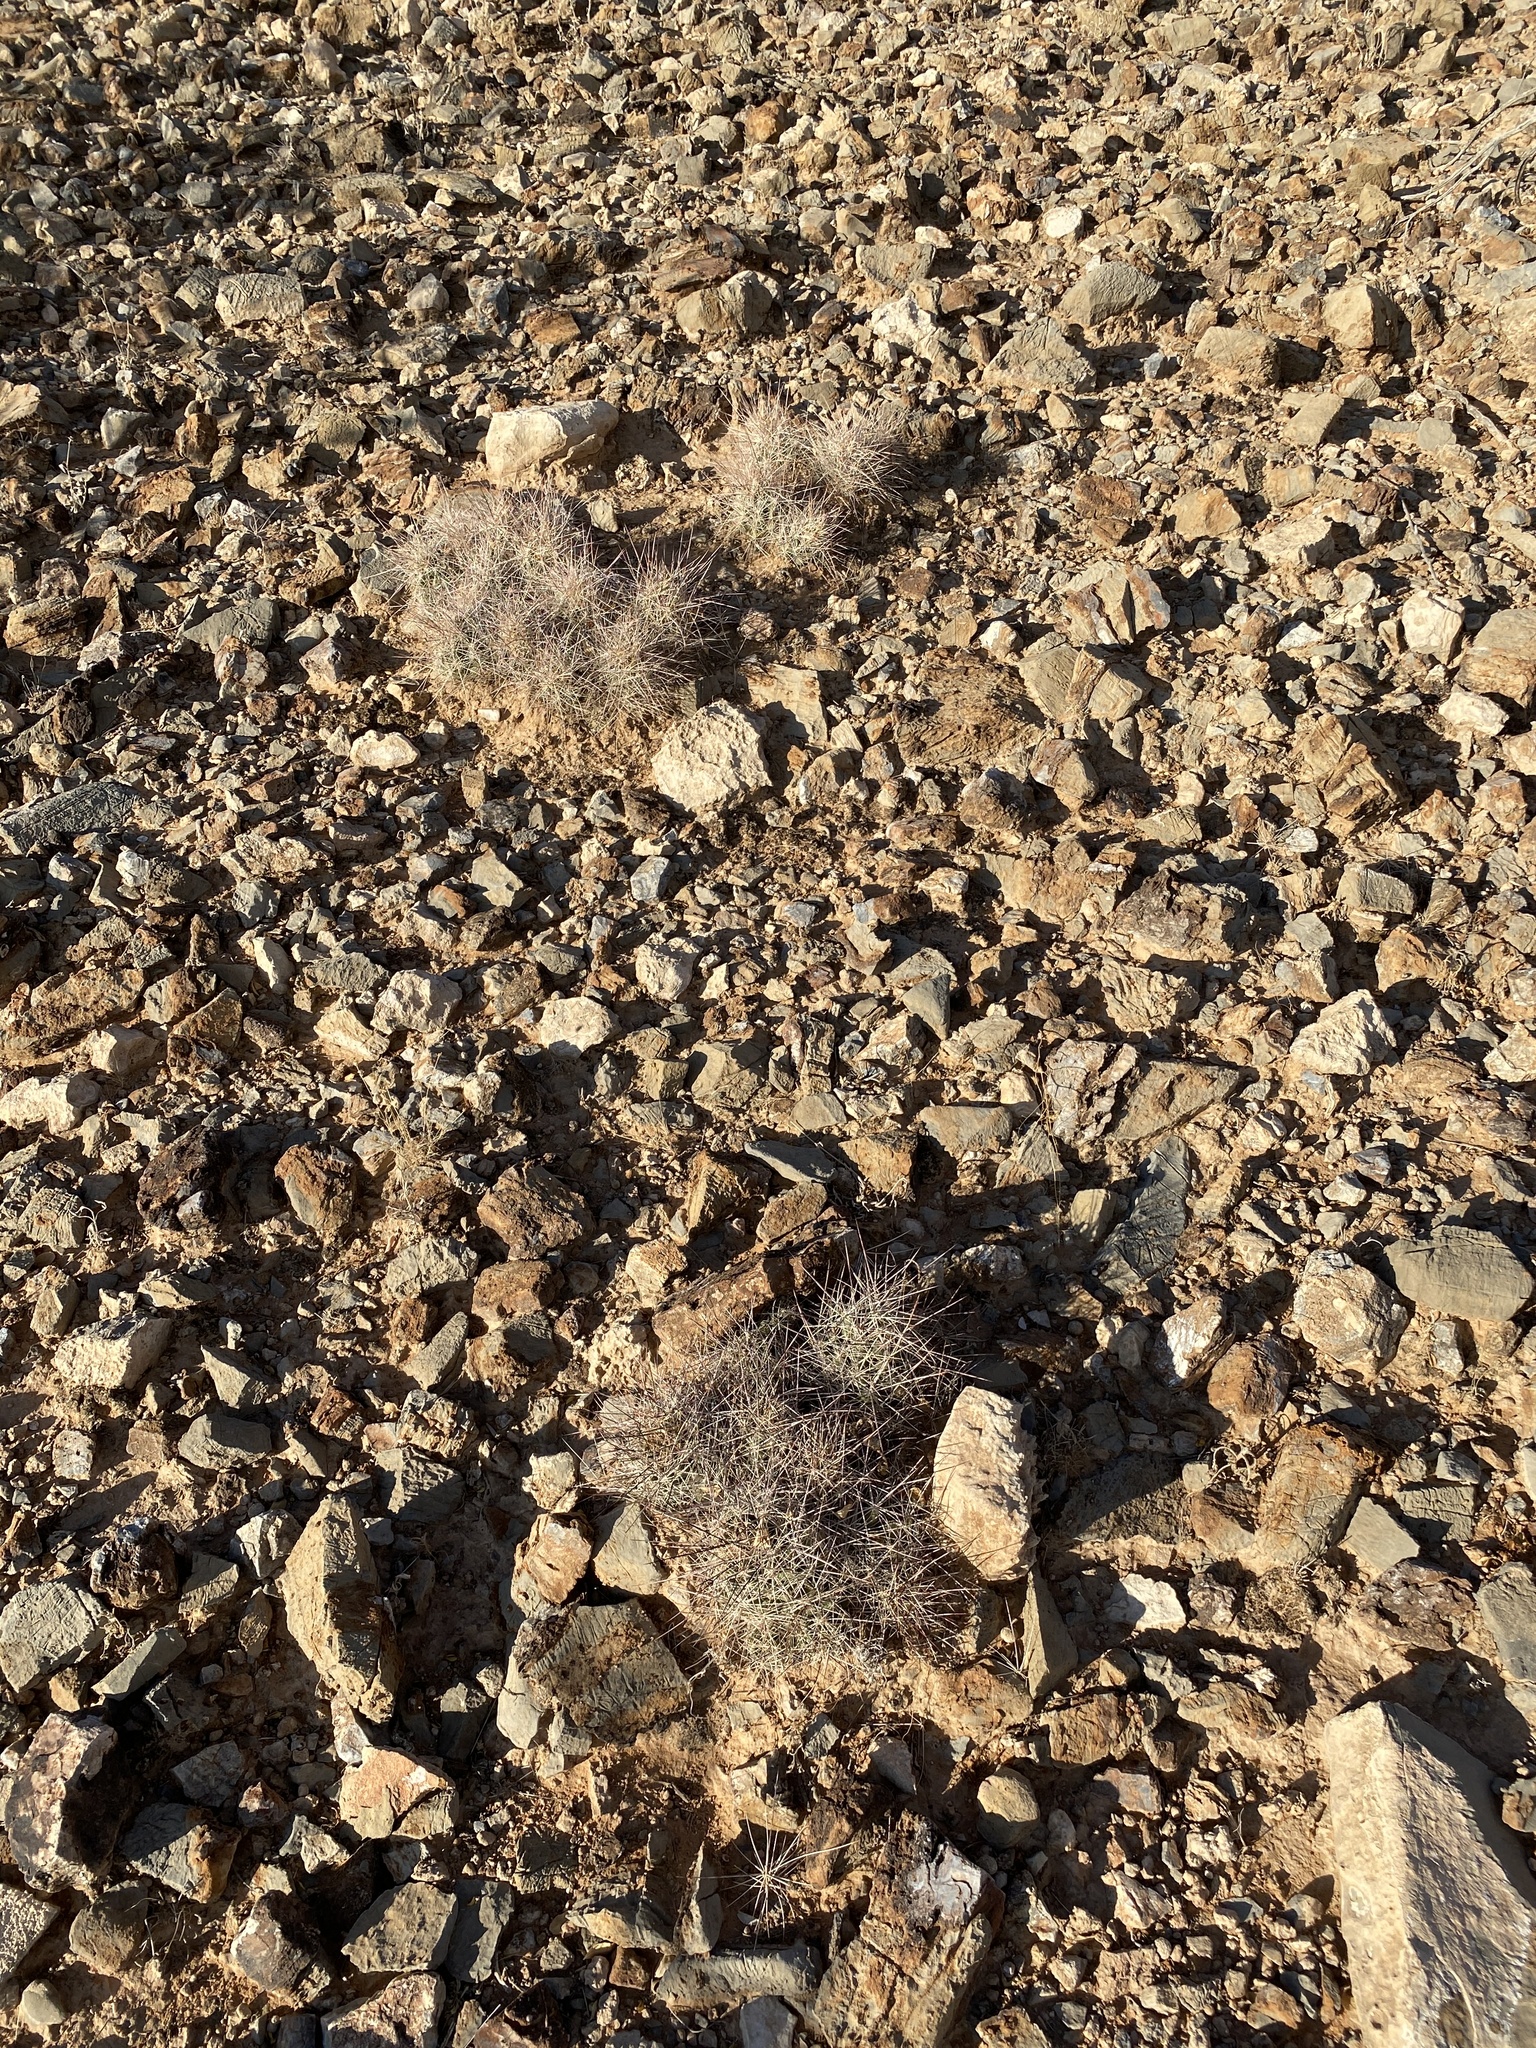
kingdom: Plantae
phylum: Tracheophyta
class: Magnoliopsida
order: Caryophyllales
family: Cactaceae
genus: Coryphantha
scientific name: Coryphantha macromeris
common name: Nipple beehive cactus
